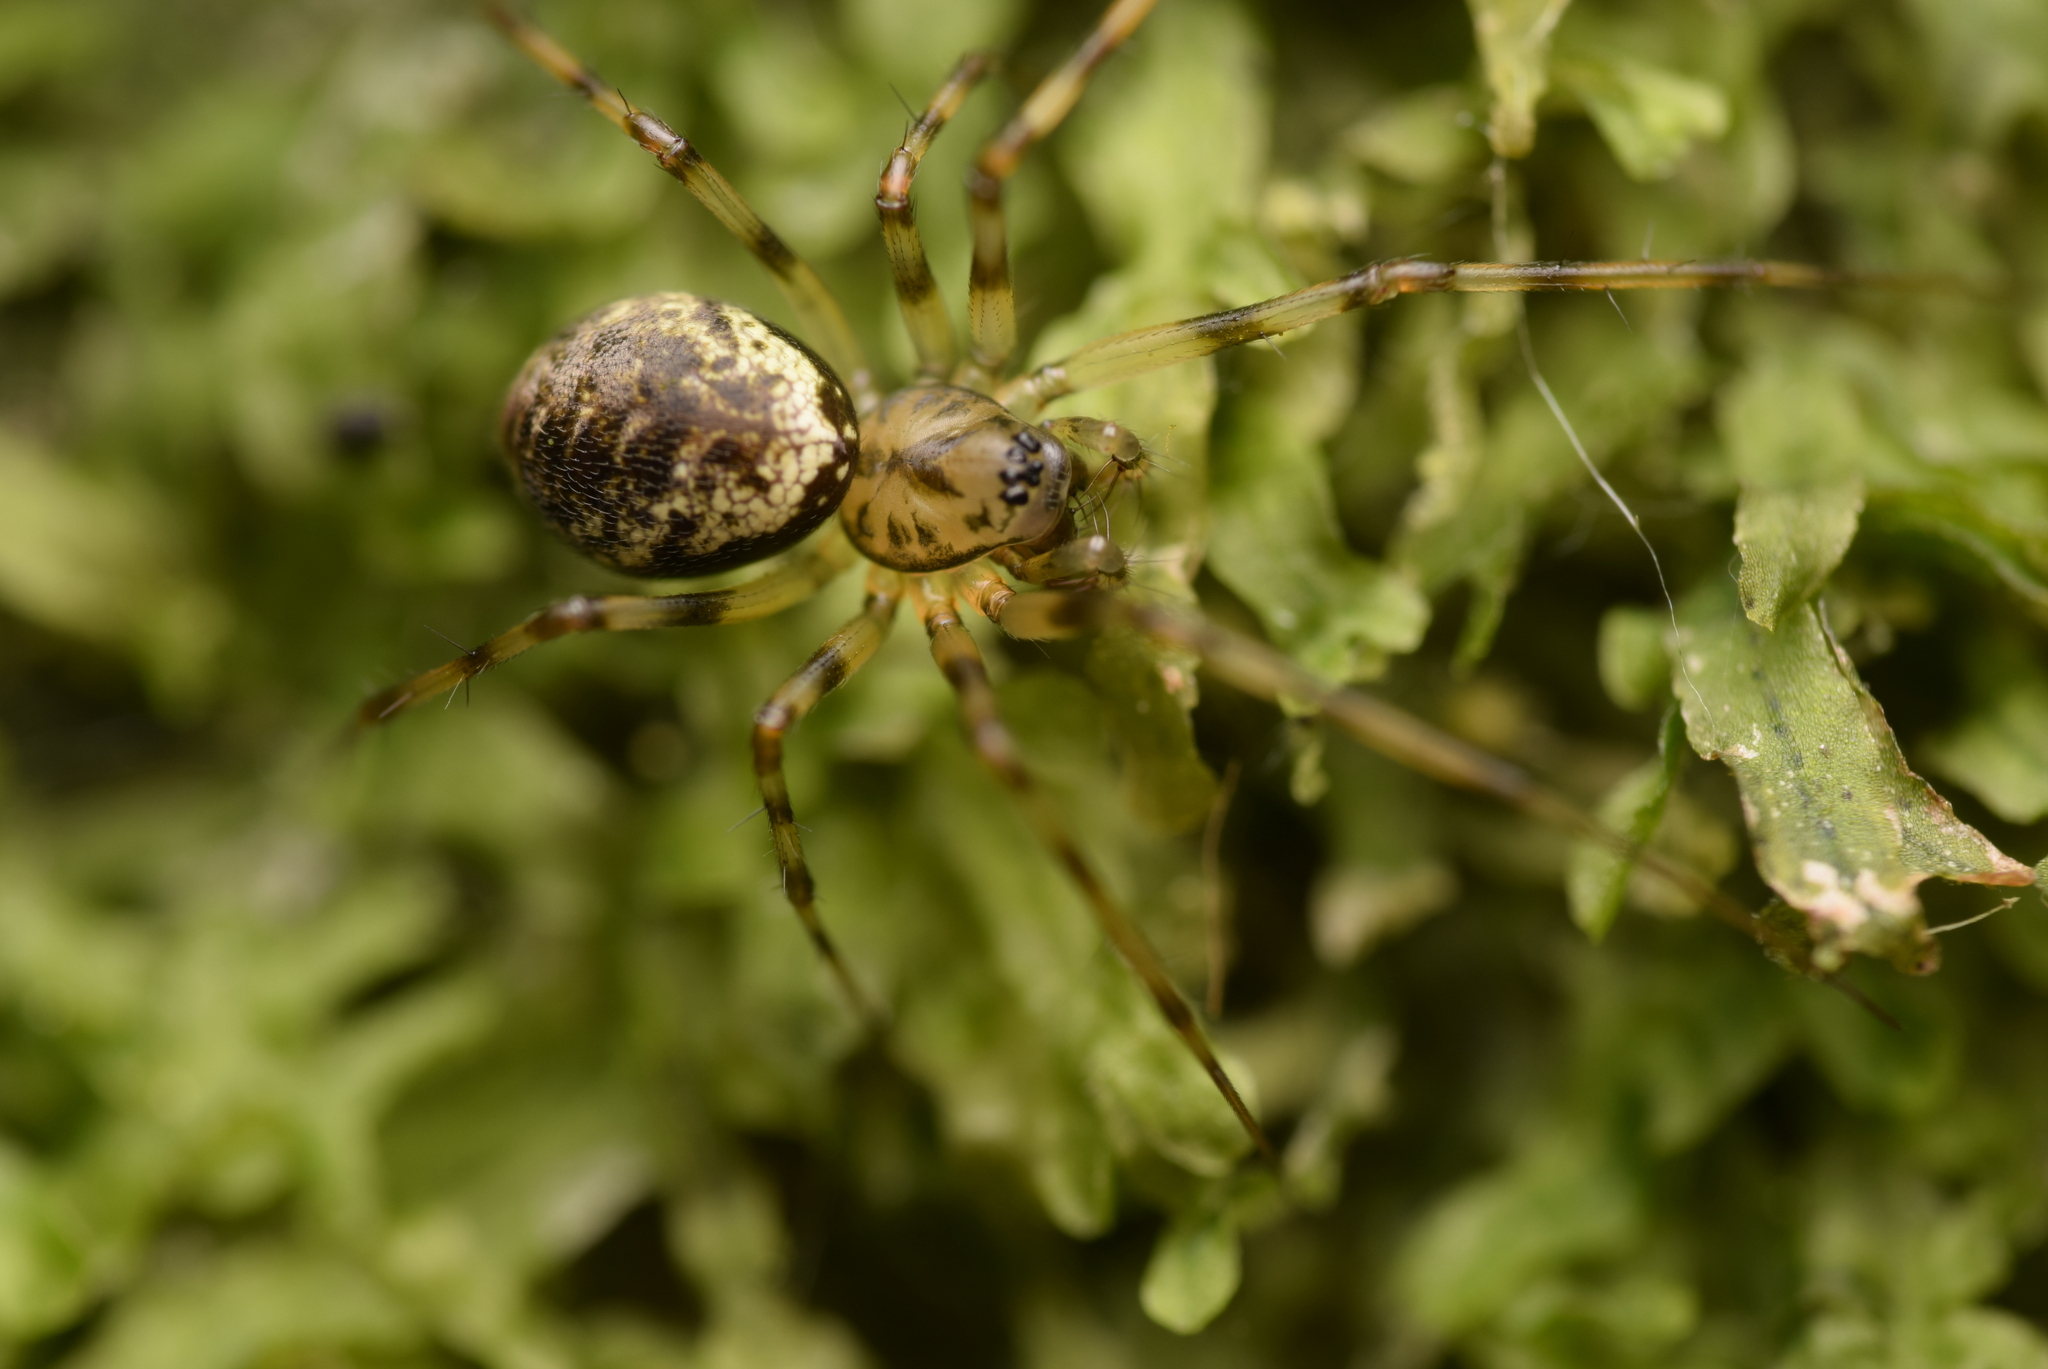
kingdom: Animalia
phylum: Arthropoda
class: Arachnida
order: Araneae
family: Linyphiidae
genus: Drapetisca
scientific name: Drapetisca socialis
